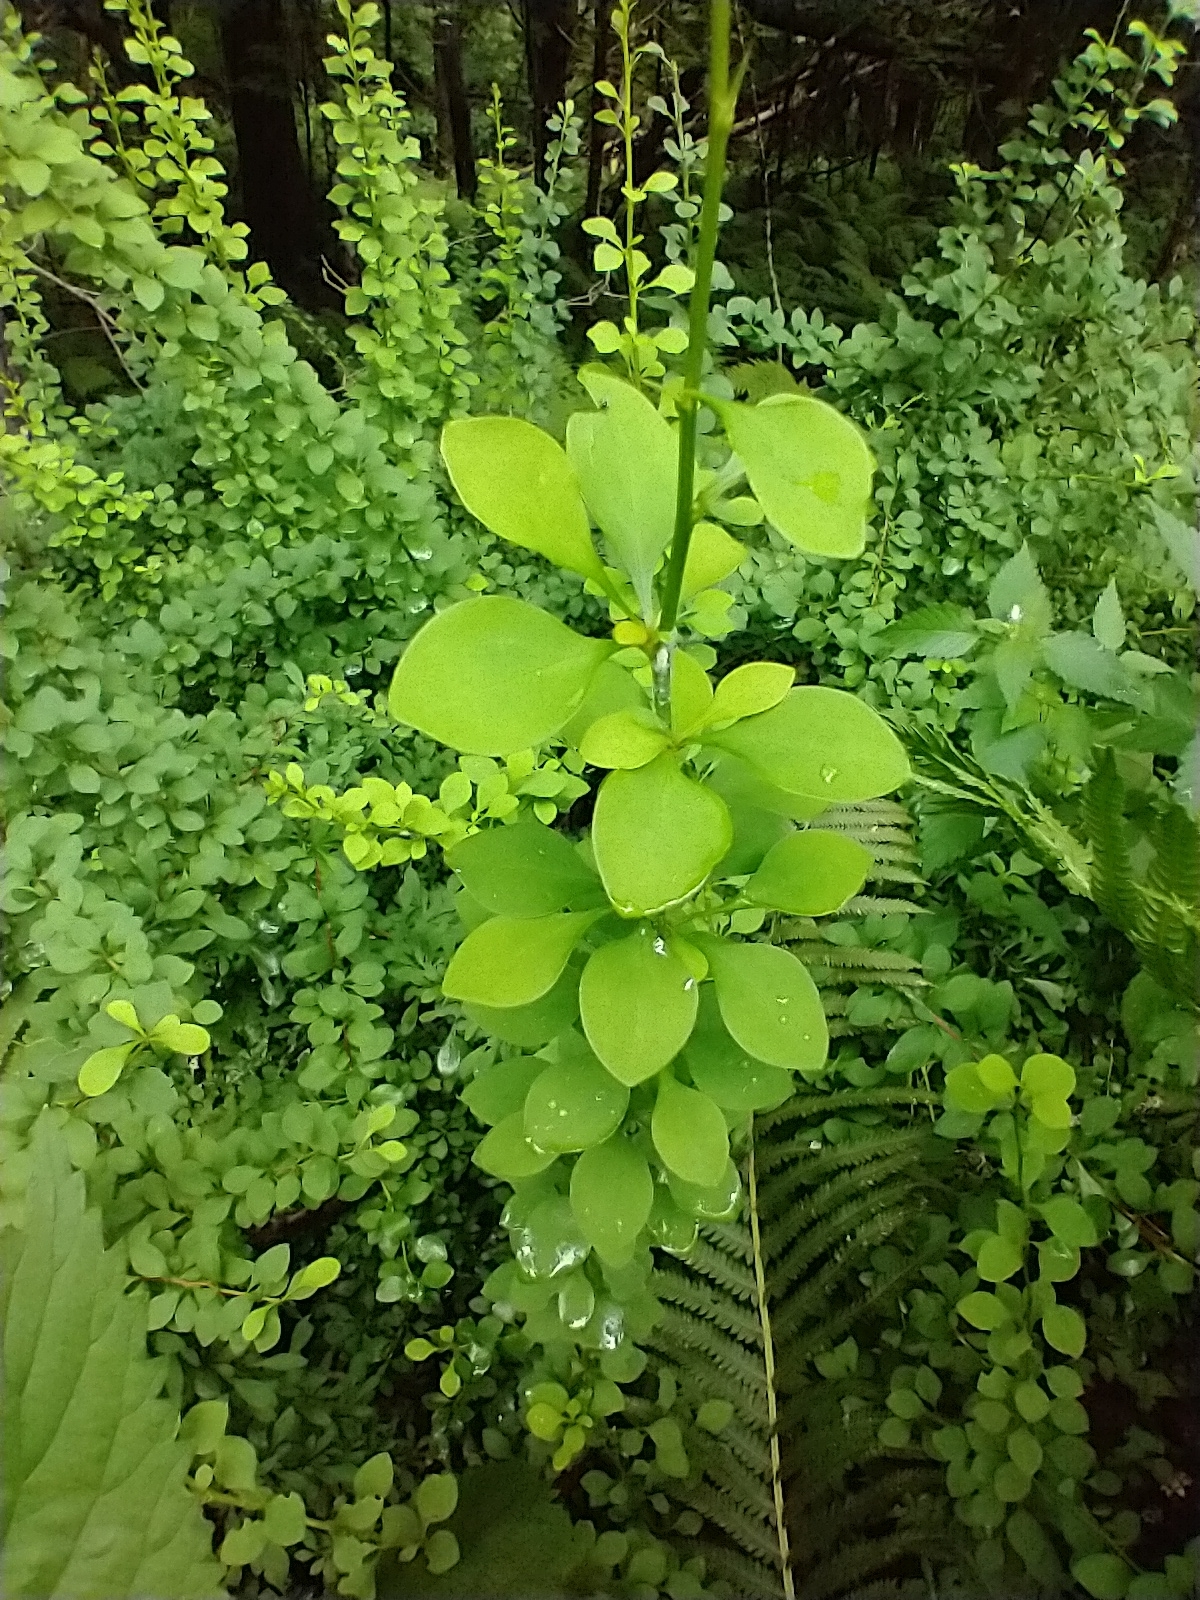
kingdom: Plantae
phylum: Tracheophyta
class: Magnoliopsida
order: Ranunculales
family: Berberidaceae
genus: Berberis
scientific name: Berberis thunbergii
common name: Japanese barberry
